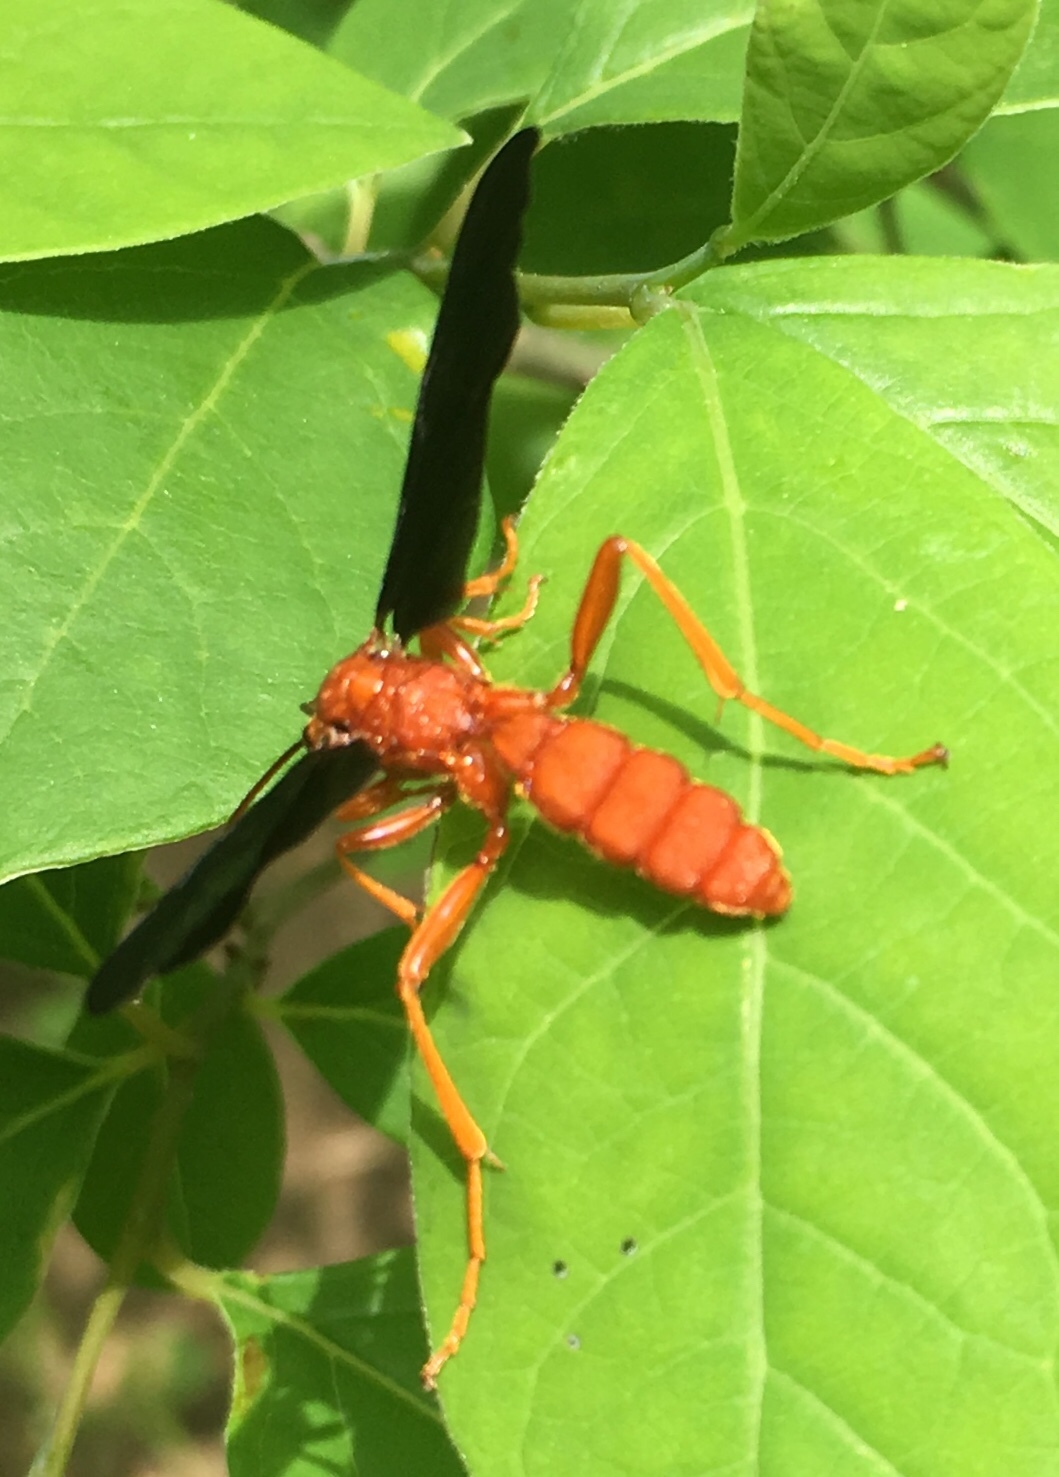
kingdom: Animalia
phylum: Arthropoda
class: Insecta
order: Hymenoptera
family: Ichneumonidae
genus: Trogus
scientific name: Trogus pennator
